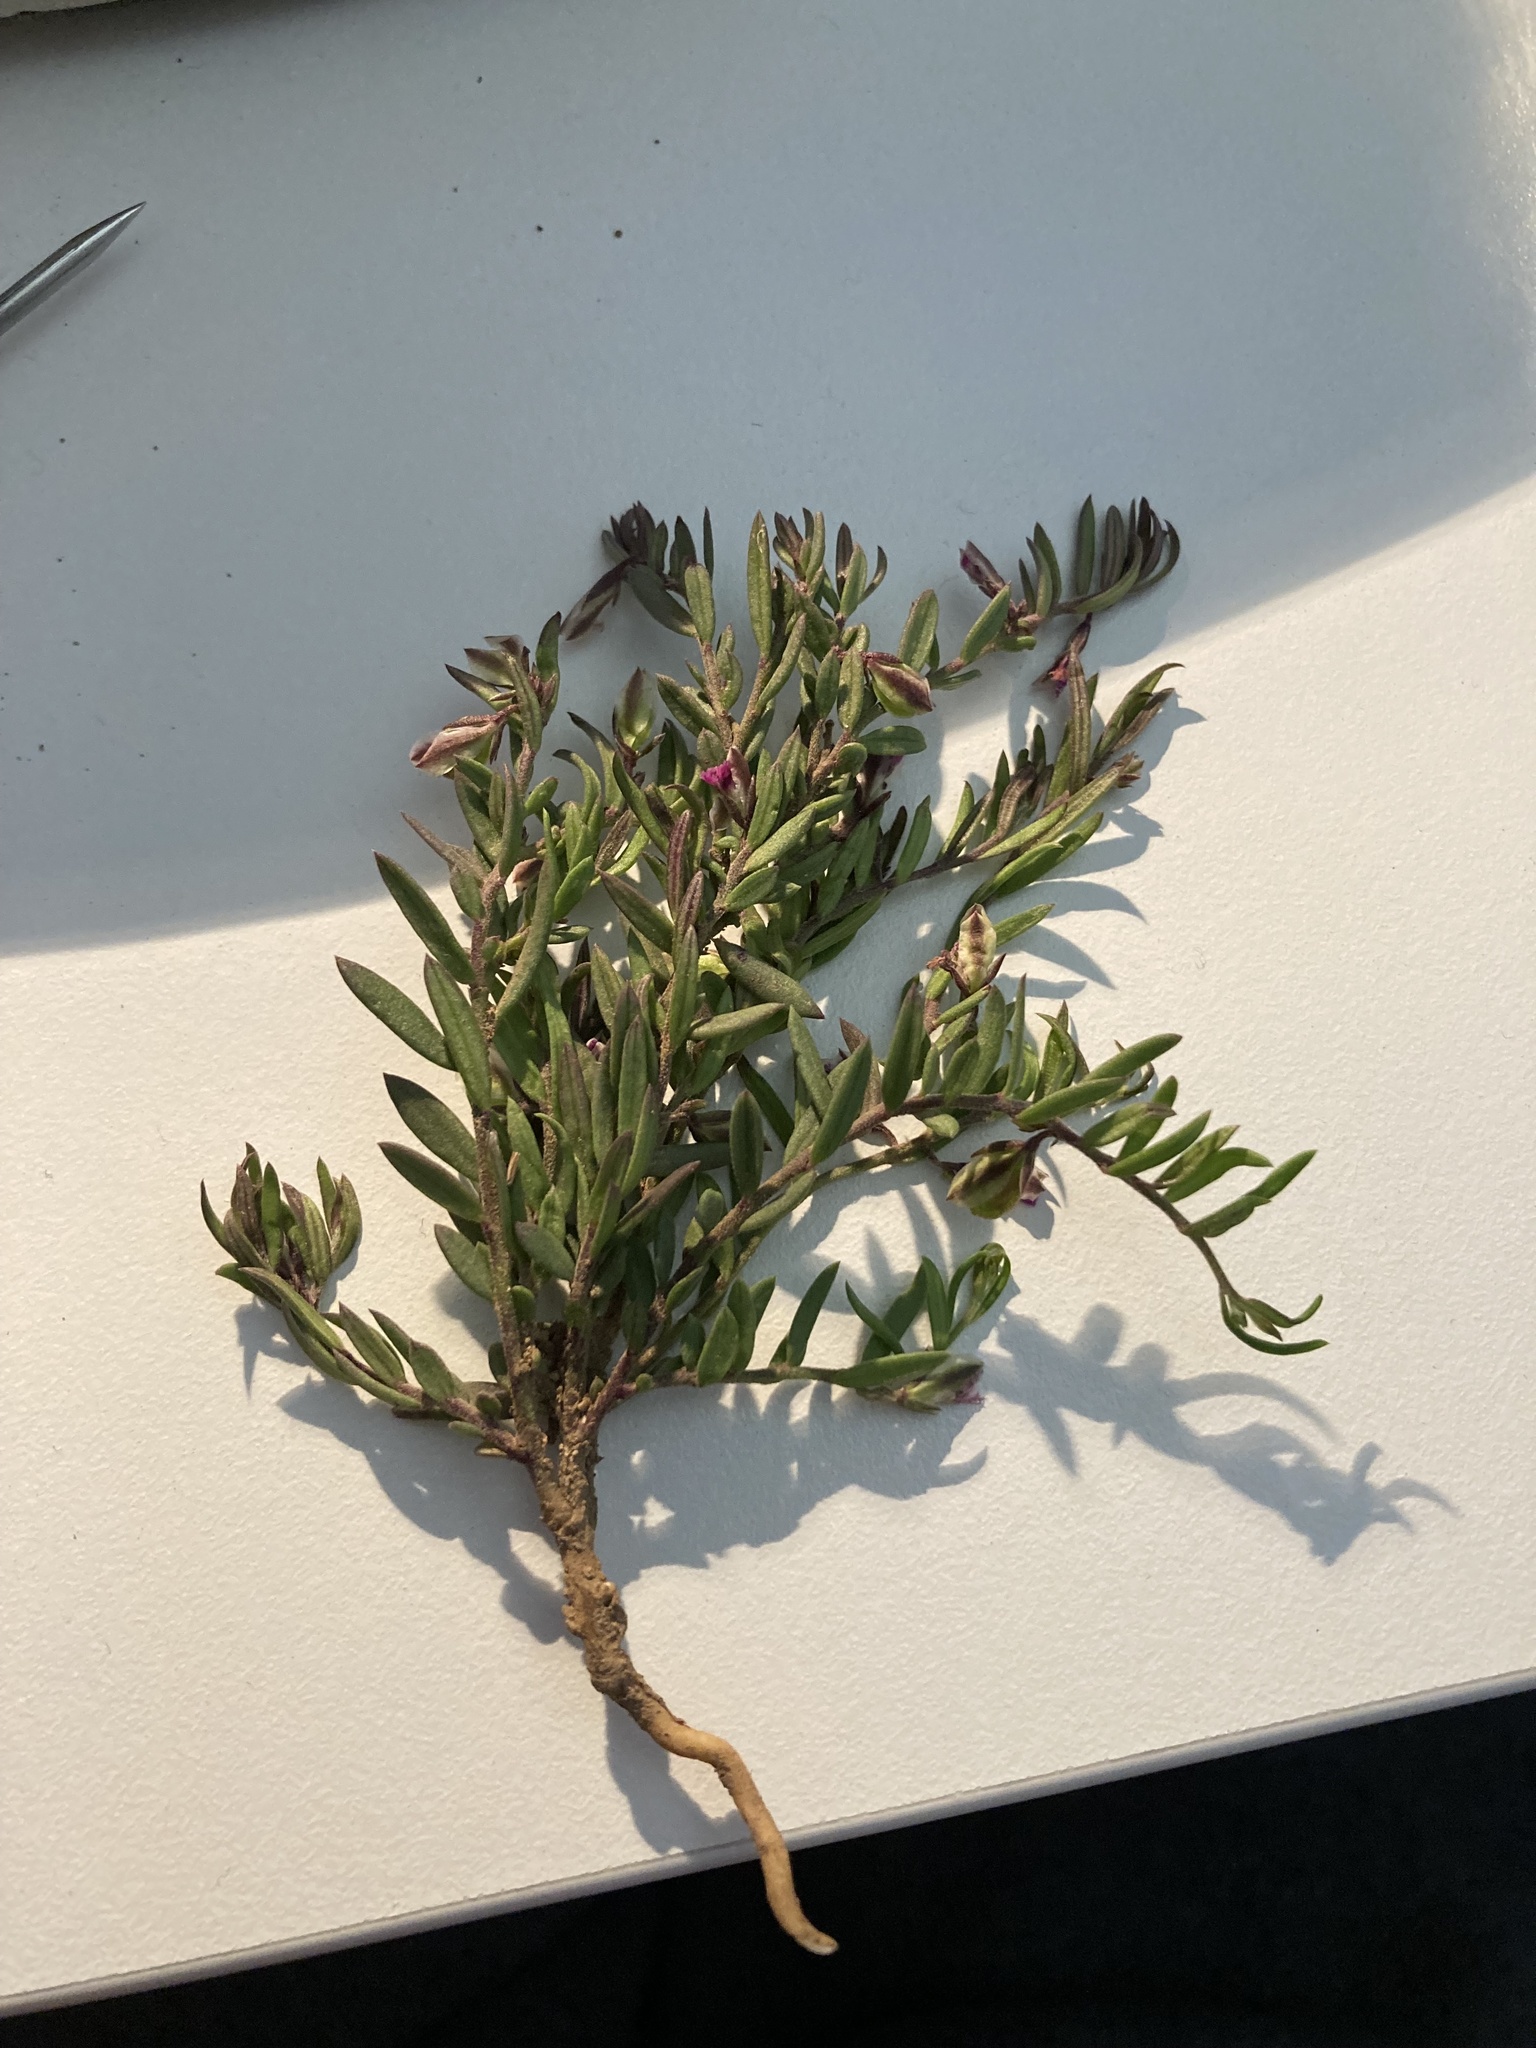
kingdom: Plantae
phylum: Tracheophyta
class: Magnoliopsida
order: Fabales
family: Polygalaceae
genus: Polygala
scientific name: Polygala rupestris
